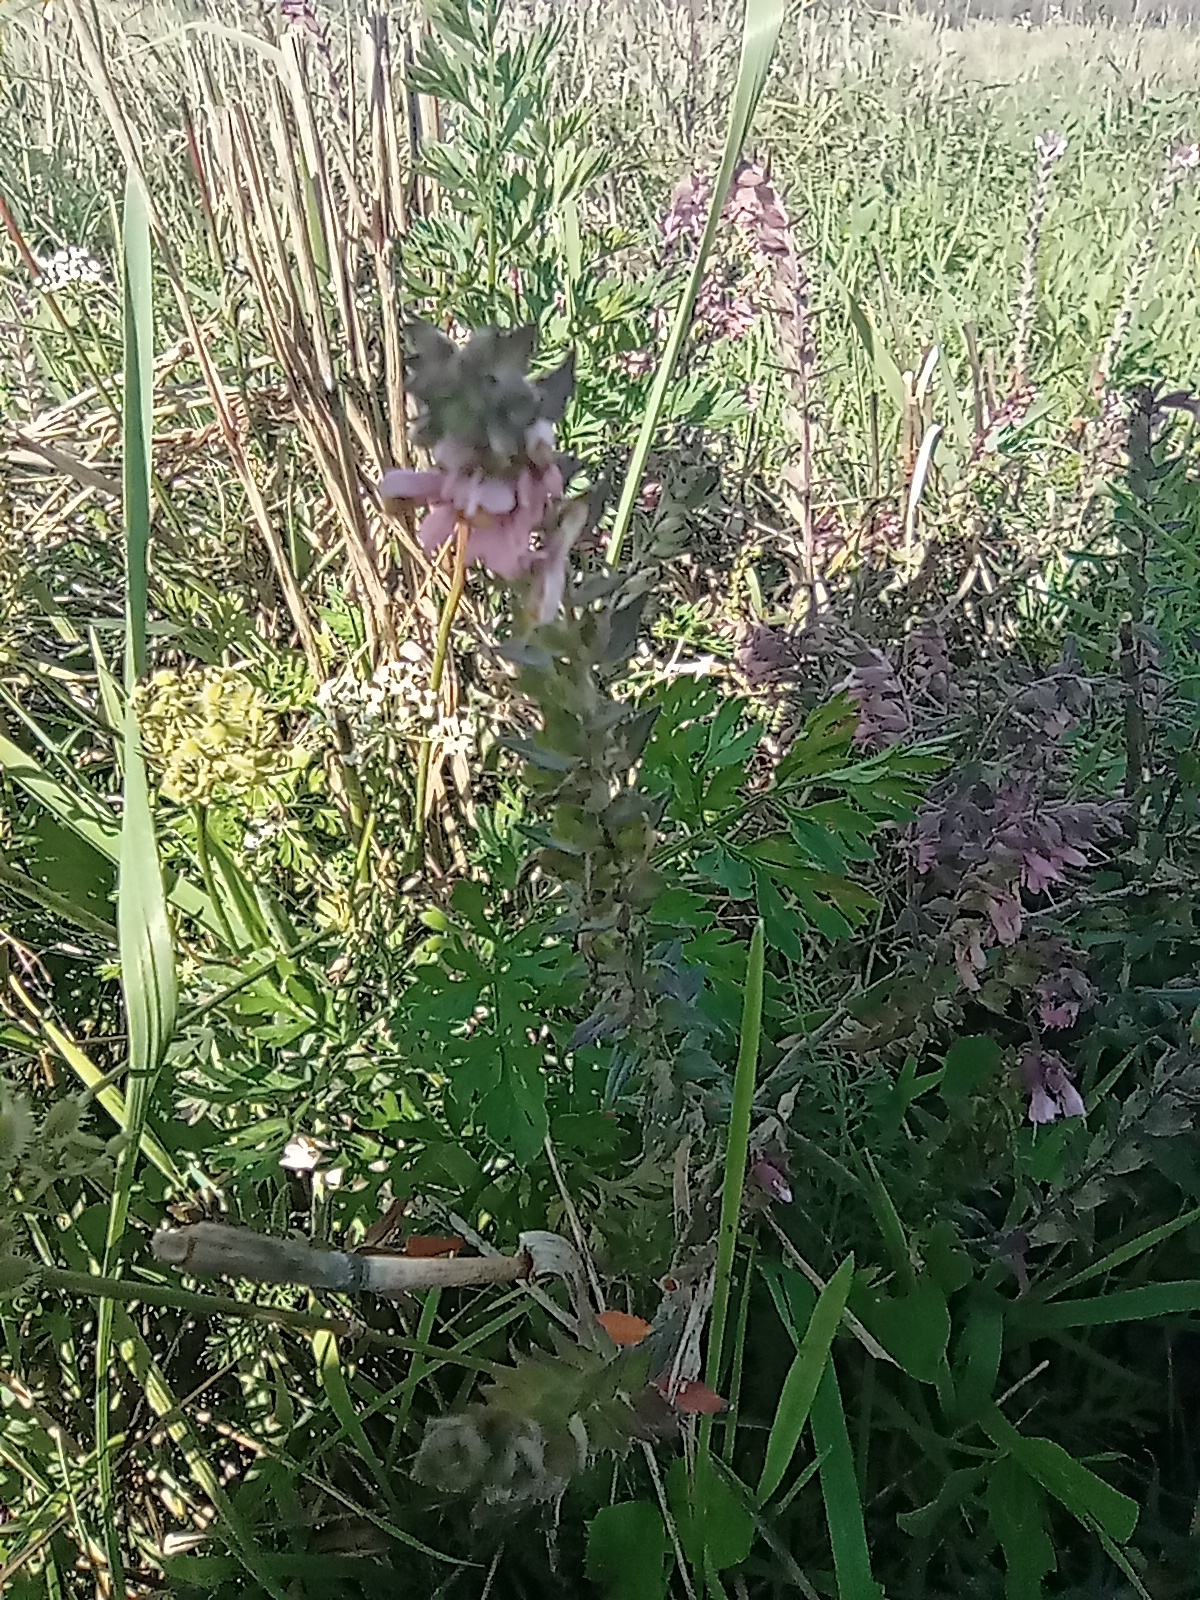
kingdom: Plantae
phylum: Tracheophyta
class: Magnoliopsida
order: Lamiales
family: Orobanchaceae
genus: Odontites
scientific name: Odontites vulgaris
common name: Broomrape
